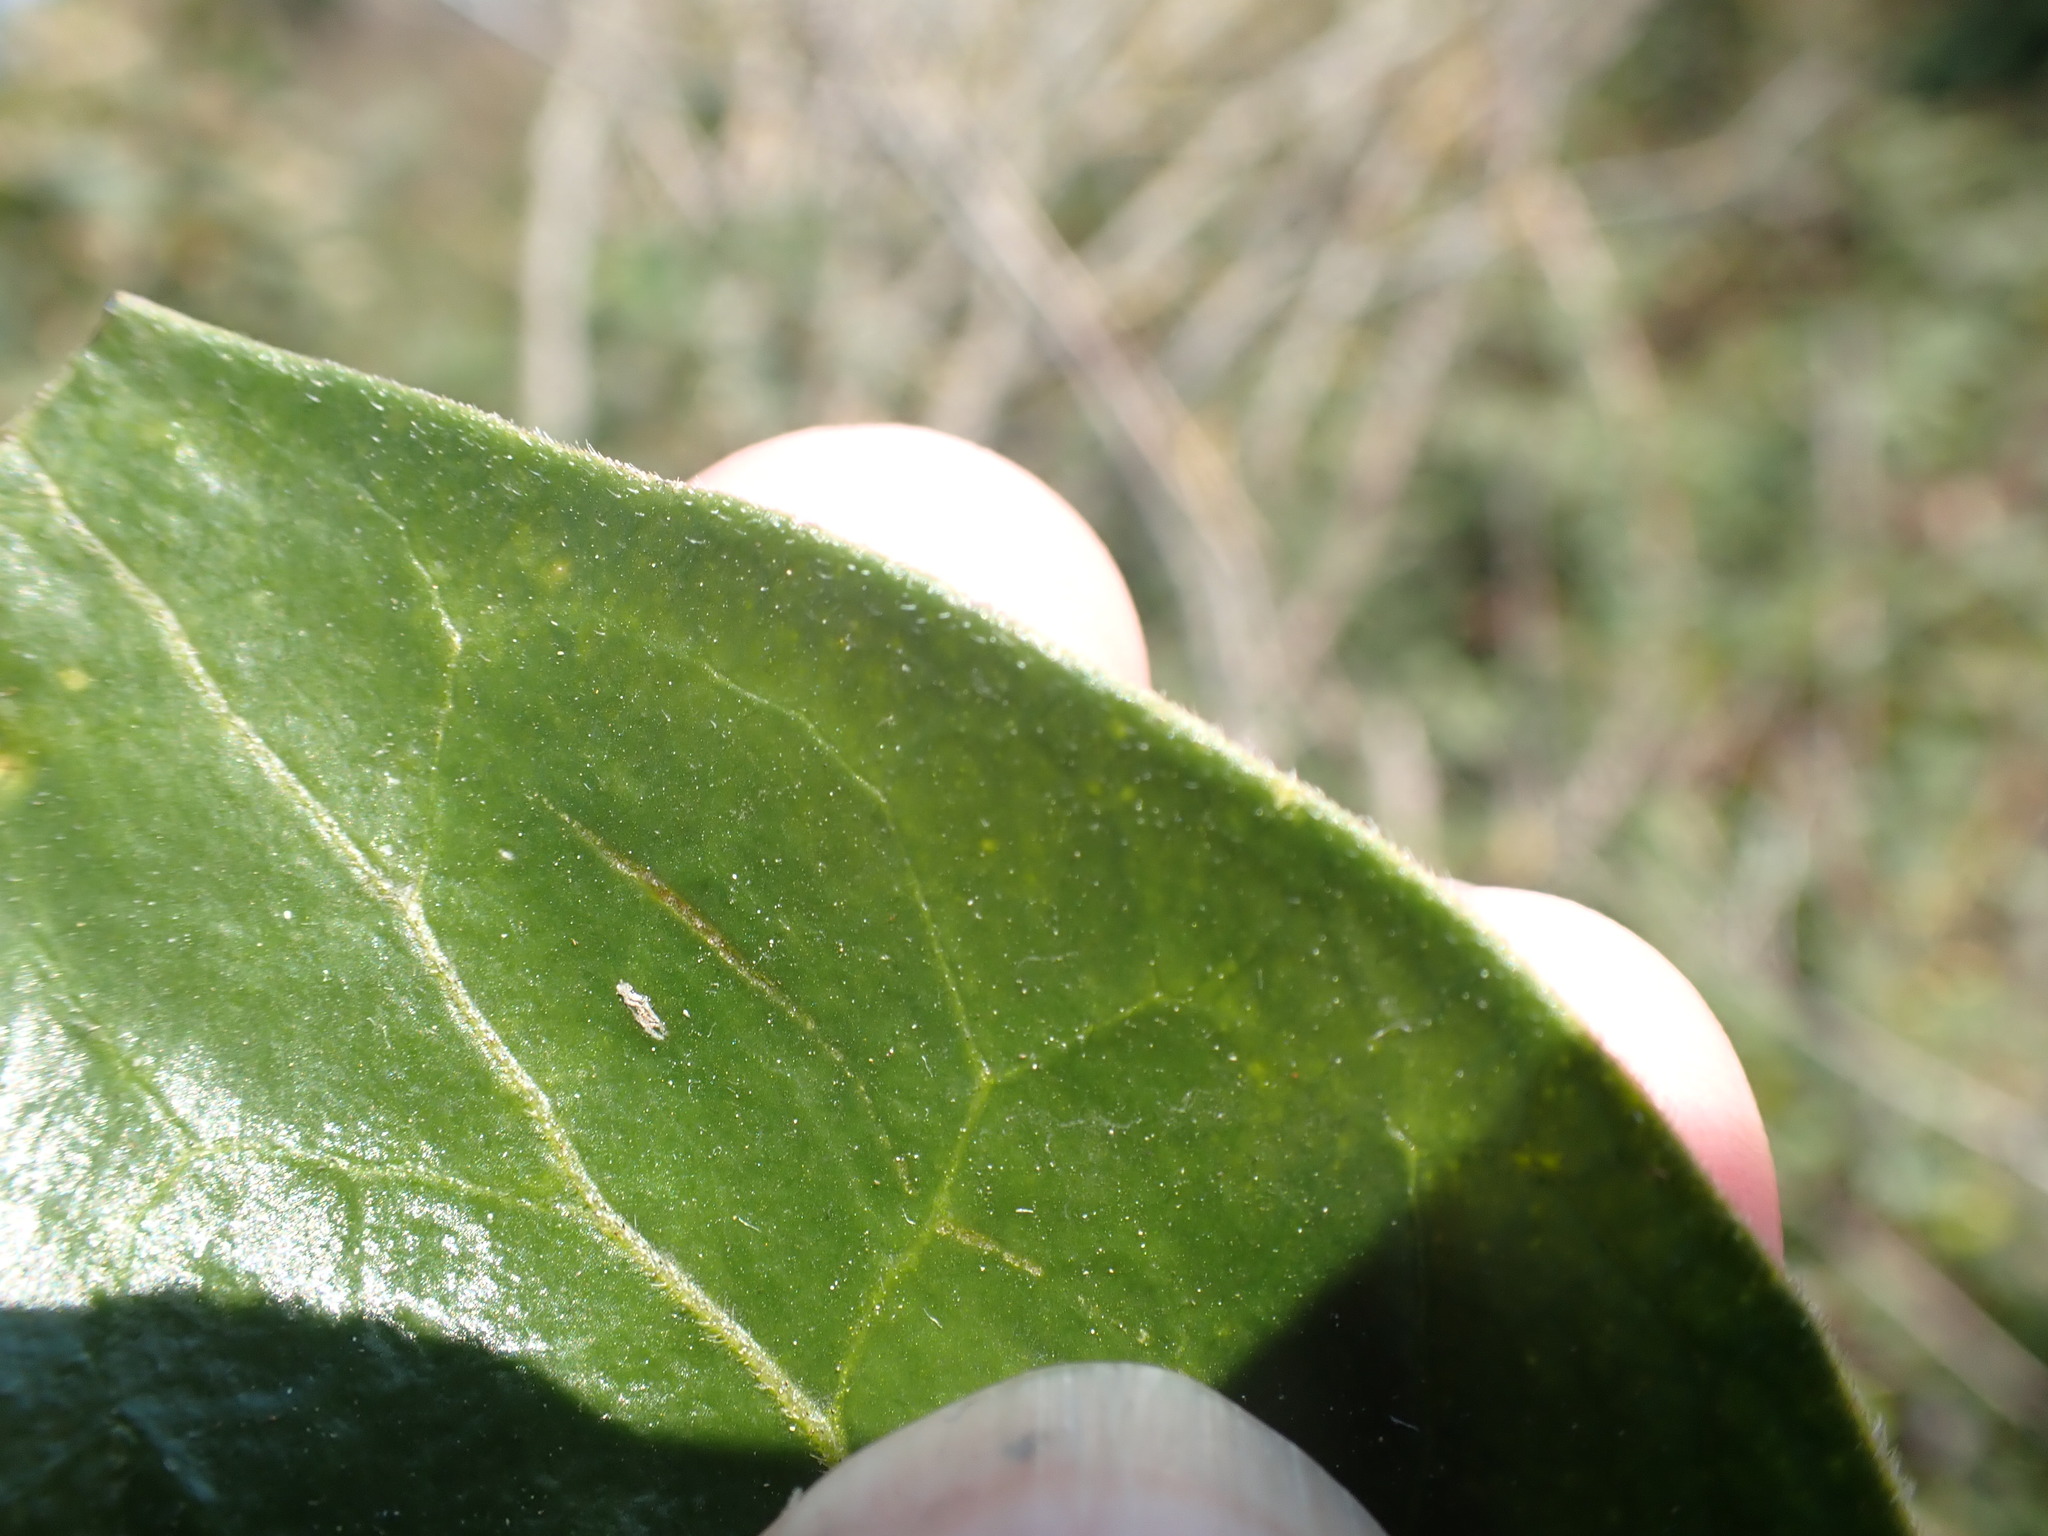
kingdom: Plantae
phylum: Tracheophyta
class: Magnoliopsida
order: Gentianales
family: Apocynaceae
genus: Vinca
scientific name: Vinca major
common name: Greater periwinkle
